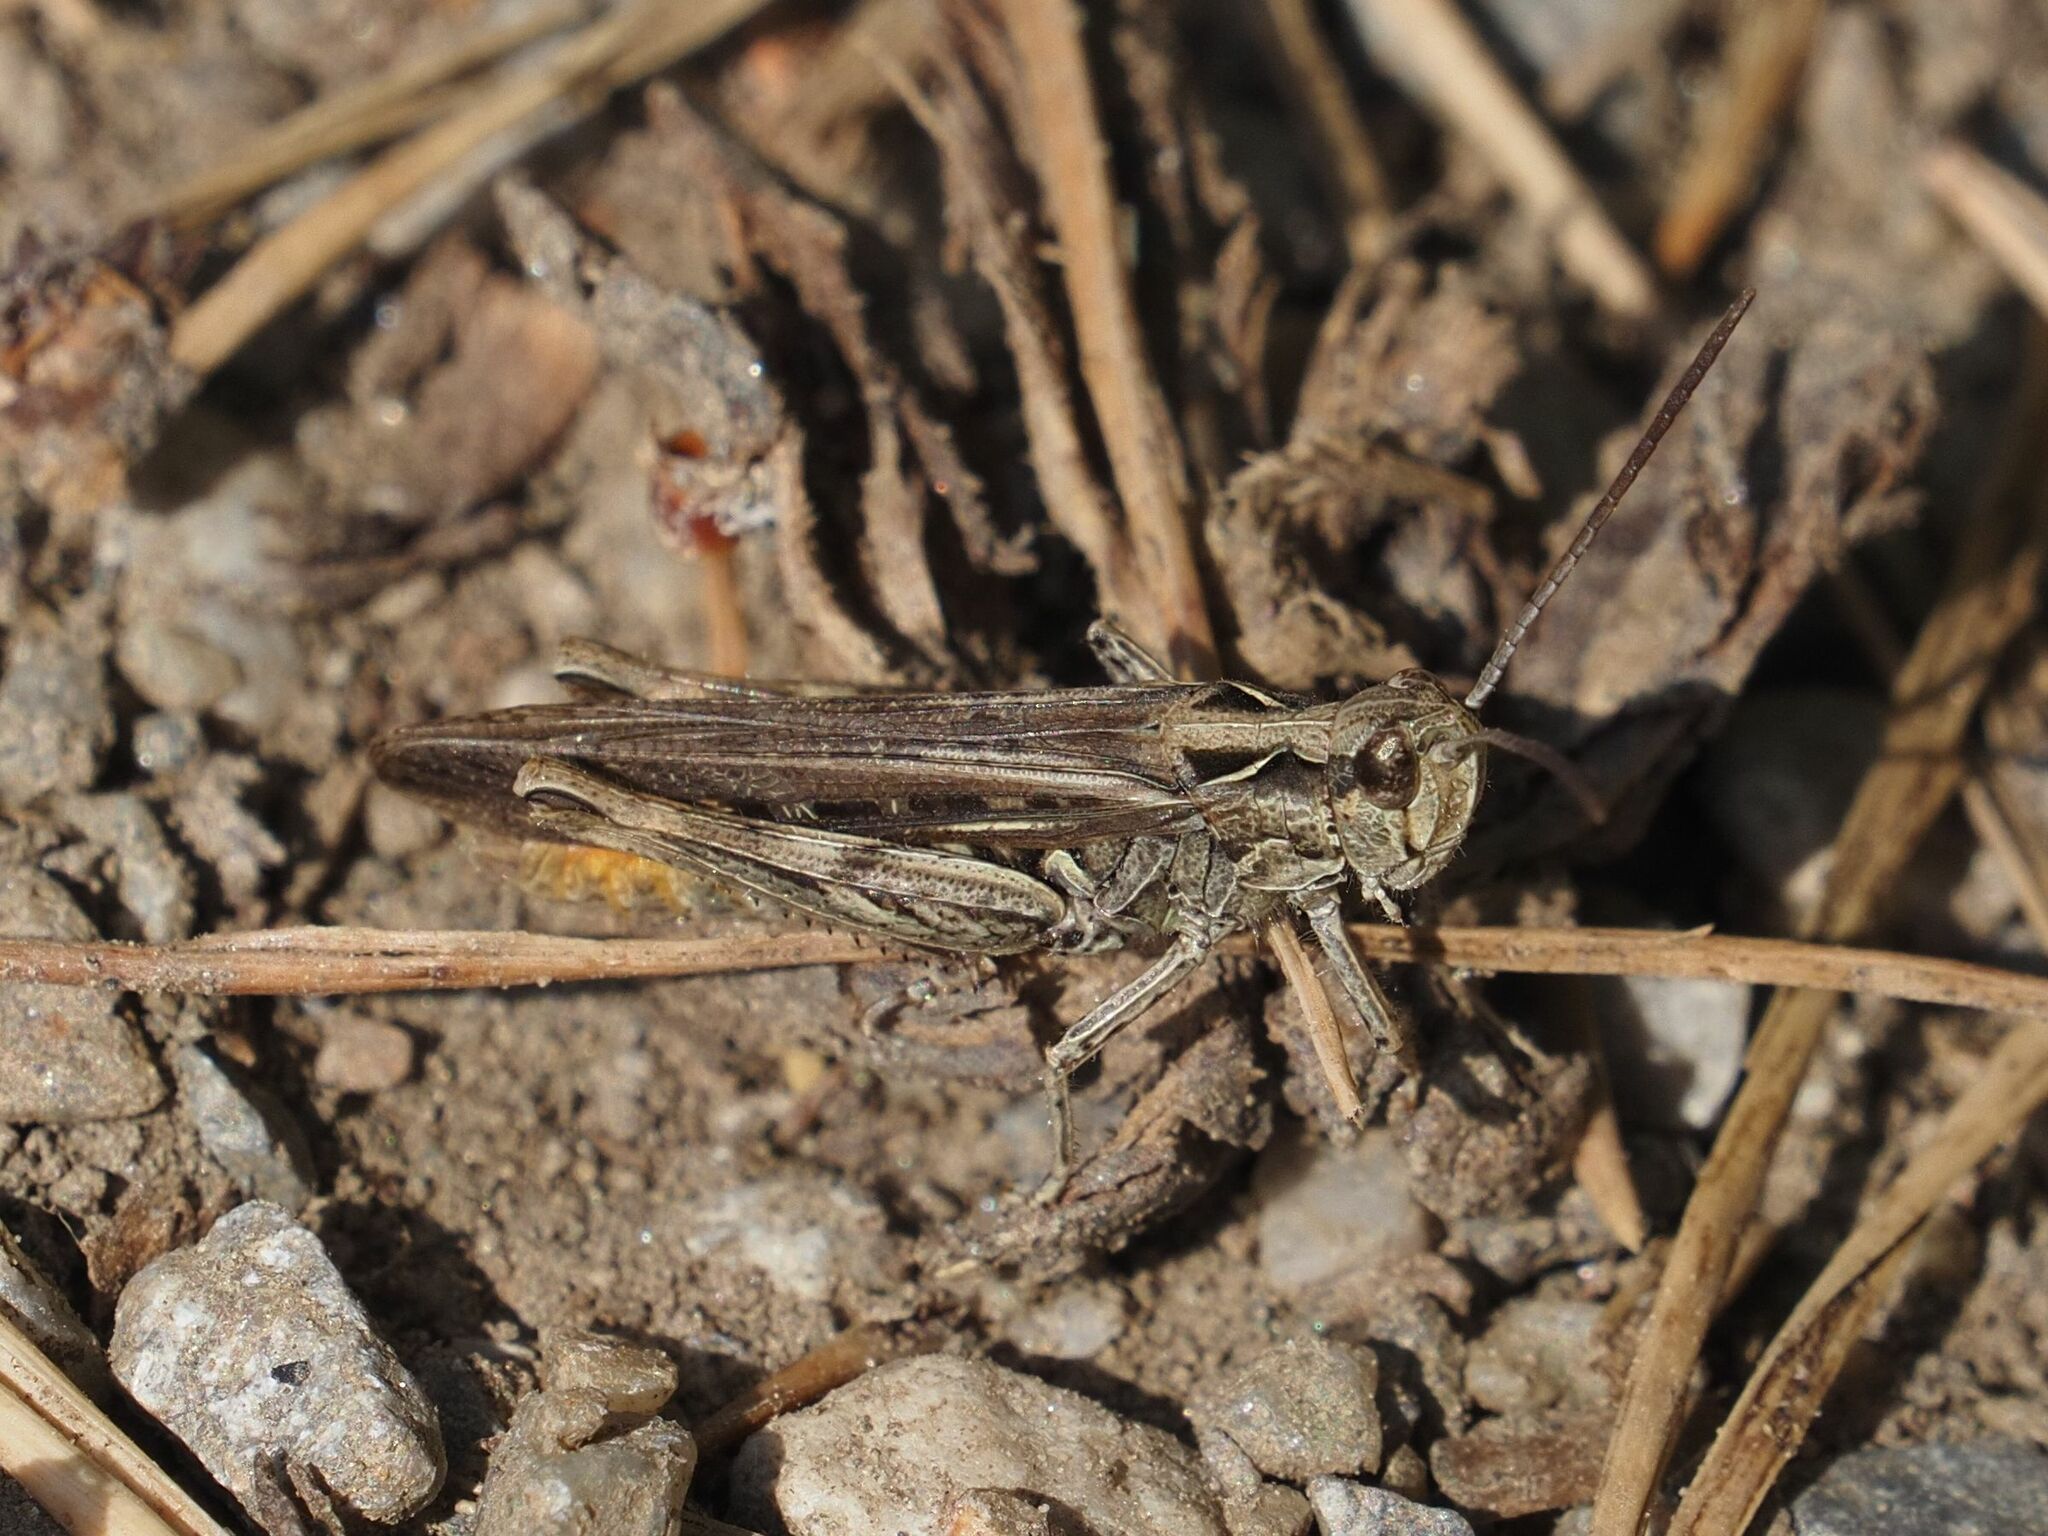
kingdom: Animalia
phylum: Arthropoda
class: Insecta
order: Orthoptera
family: Acrididae
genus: Chorthippus
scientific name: Chorthippus brunneus
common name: Field grasshopper
